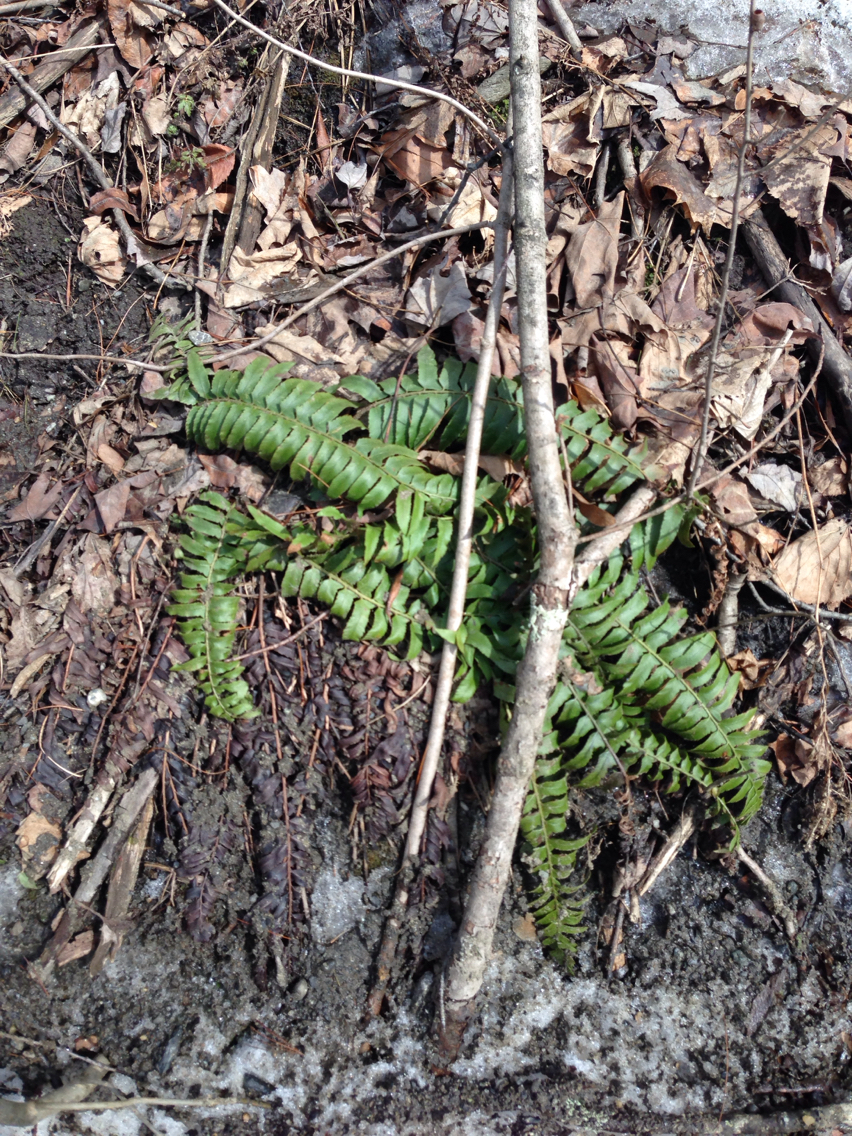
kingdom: Plantae
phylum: Tracheophyta
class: Polypodiopsida
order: Polypodiales
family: Dryopteridaceae
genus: Polystichum
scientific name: Polystichum acrostichoides
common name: Christmas fern
